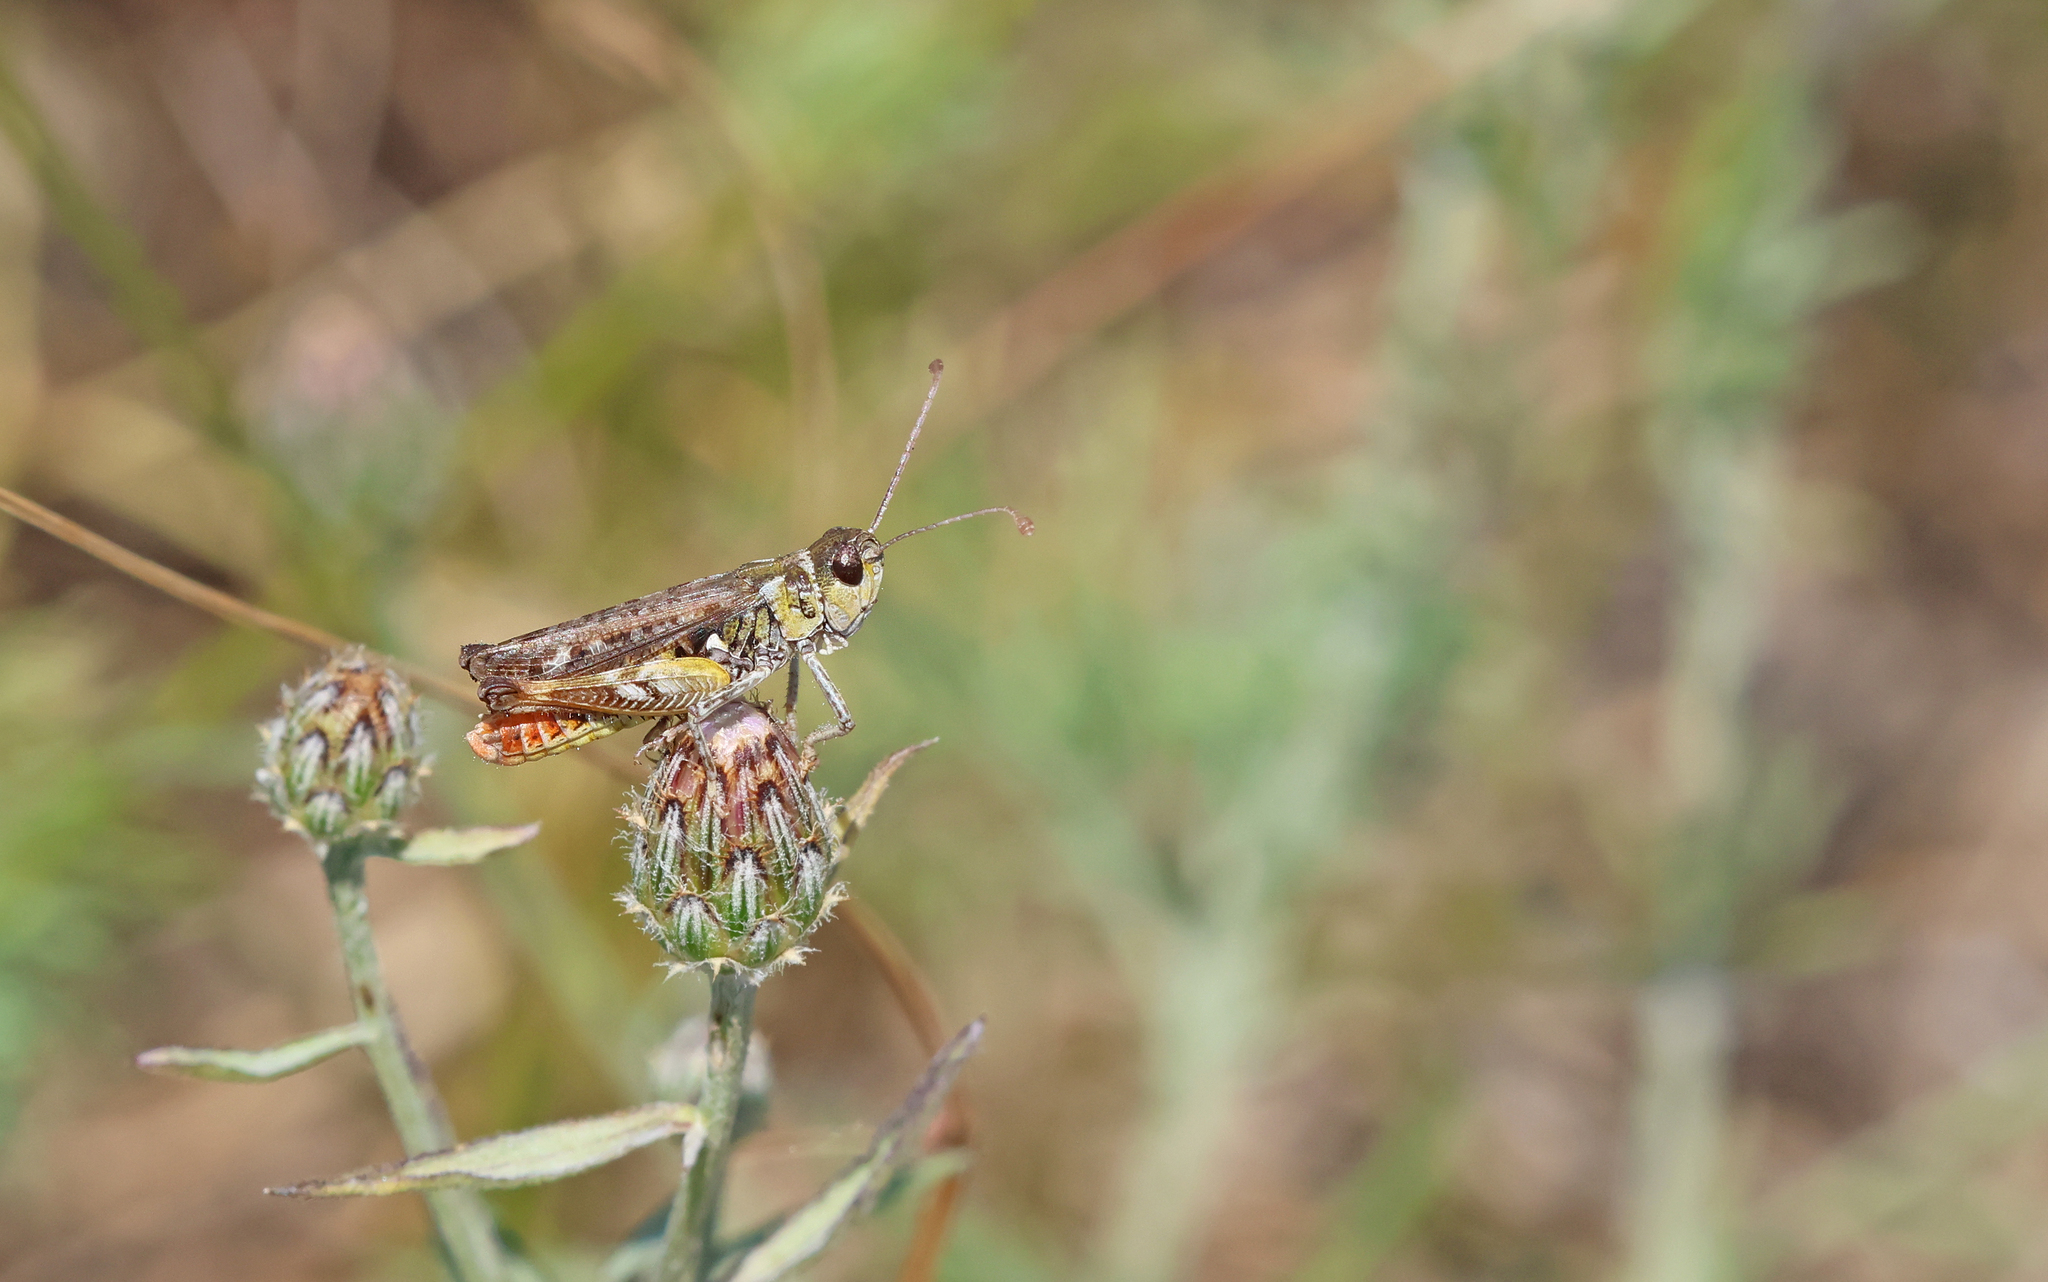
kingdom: Animalia
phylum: Arthropoda
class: Insecta
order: Orthoptera
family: Acrididae
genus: Myrmeleotettix
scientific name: Myrmeleotettix maculatus
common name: Mottled grasshopper
